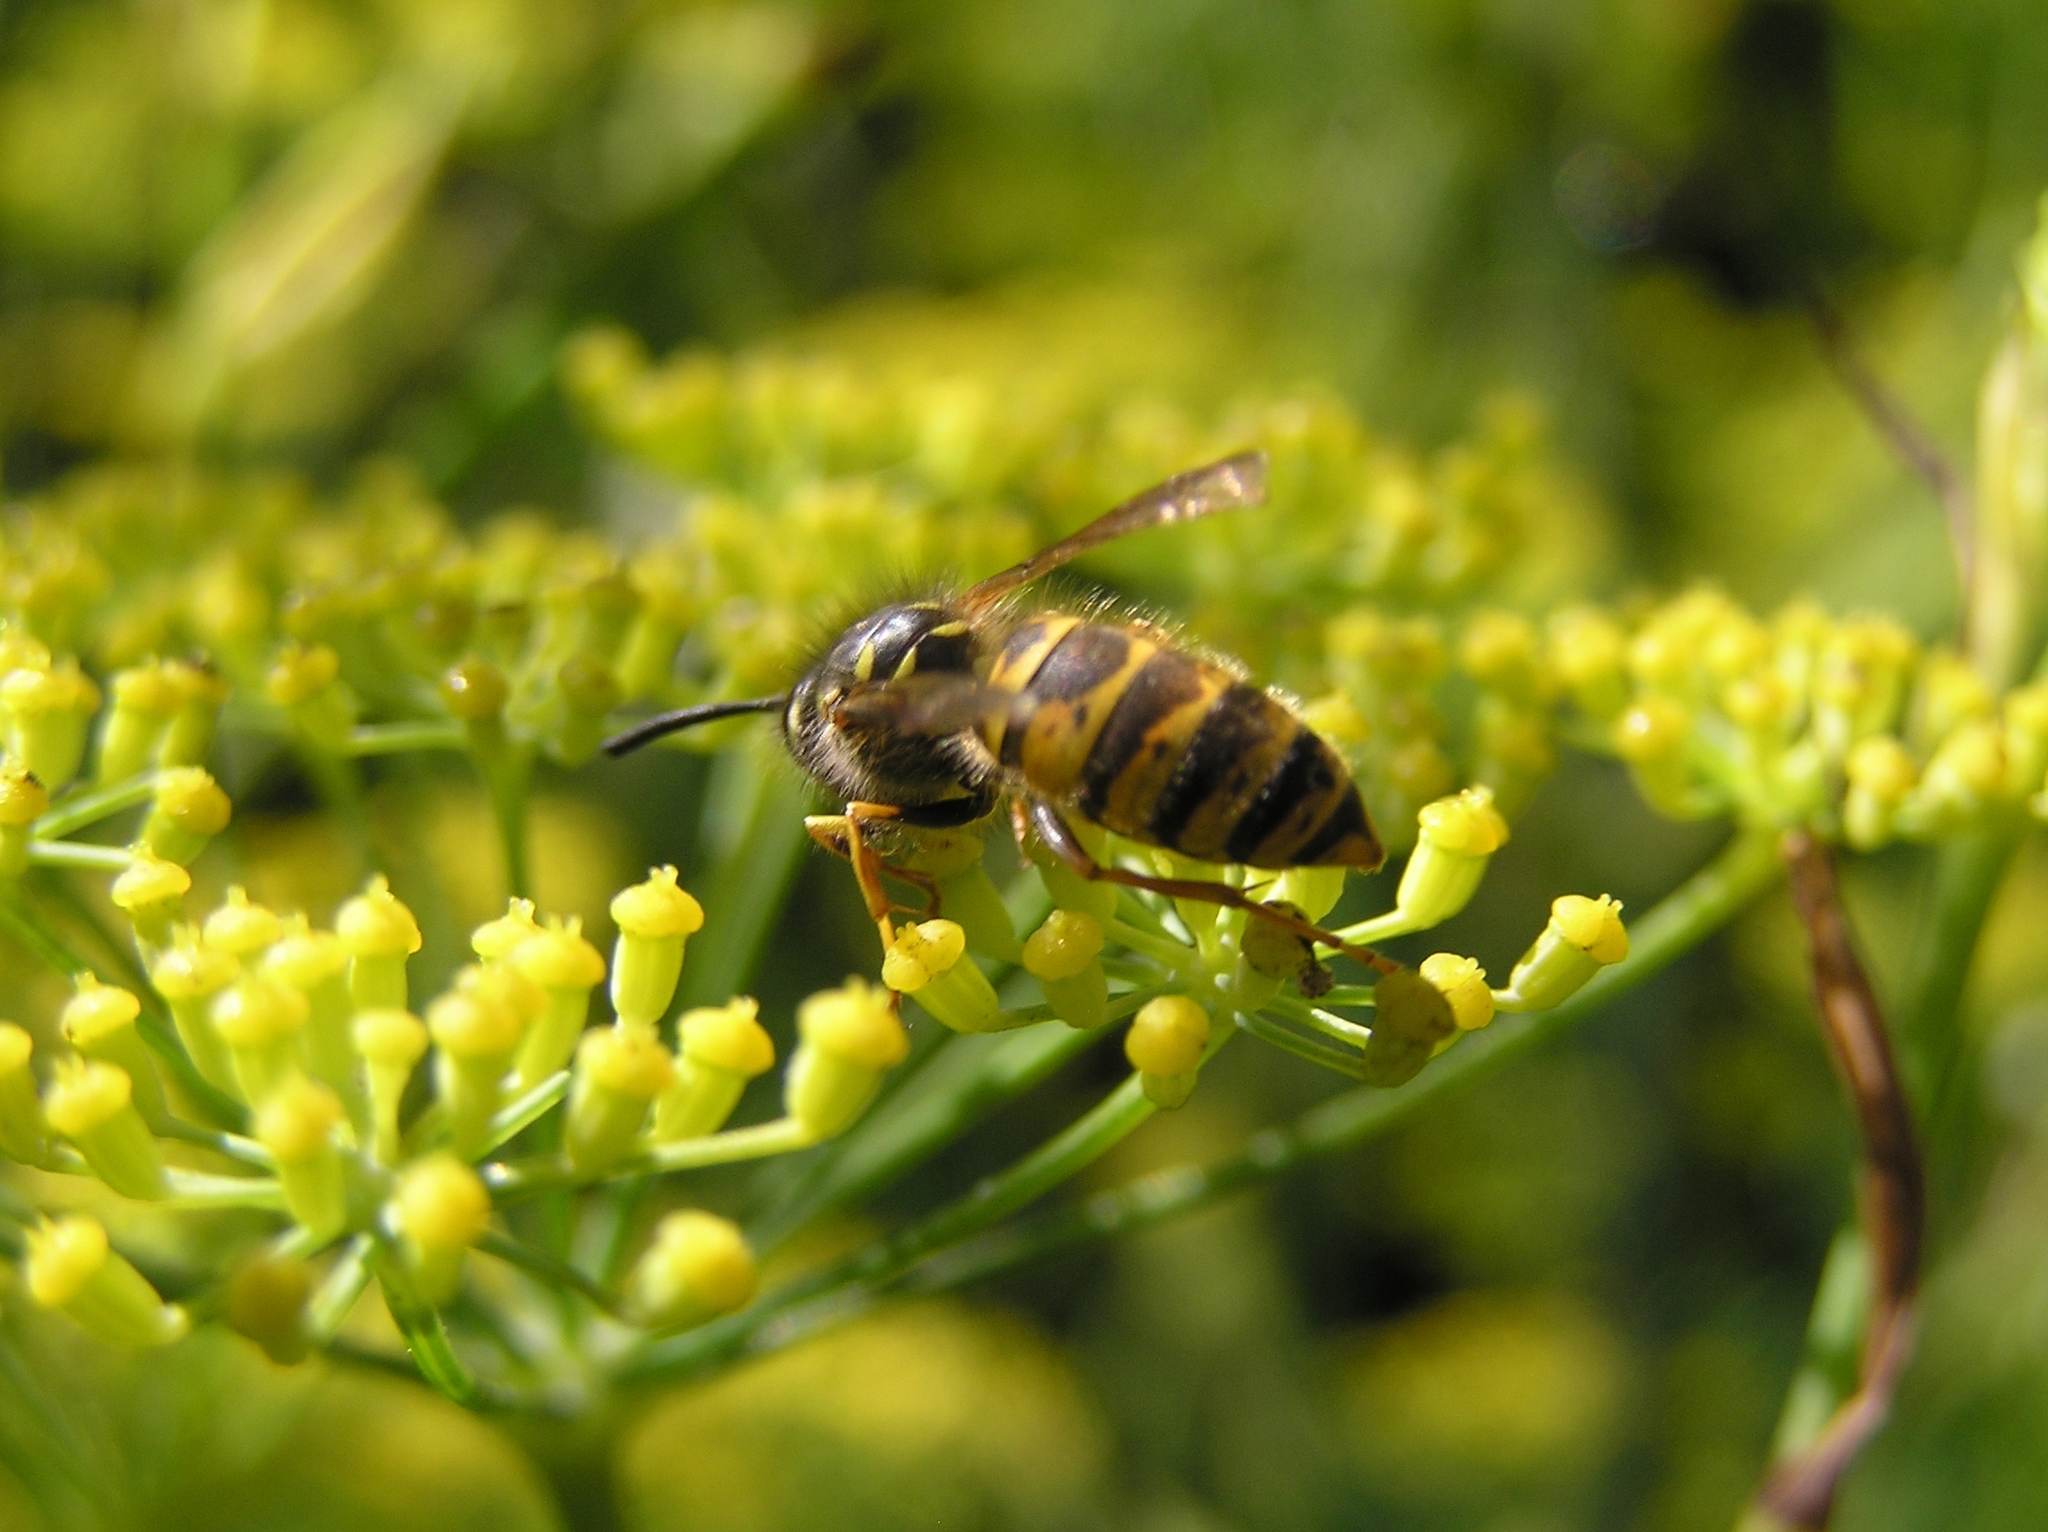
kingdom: Animalia
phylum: Arthropoda
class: Insecta
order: Hymenoptera
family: Vespidae
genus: Vespula
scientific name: Vespula vulgaris
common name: Common wasp
